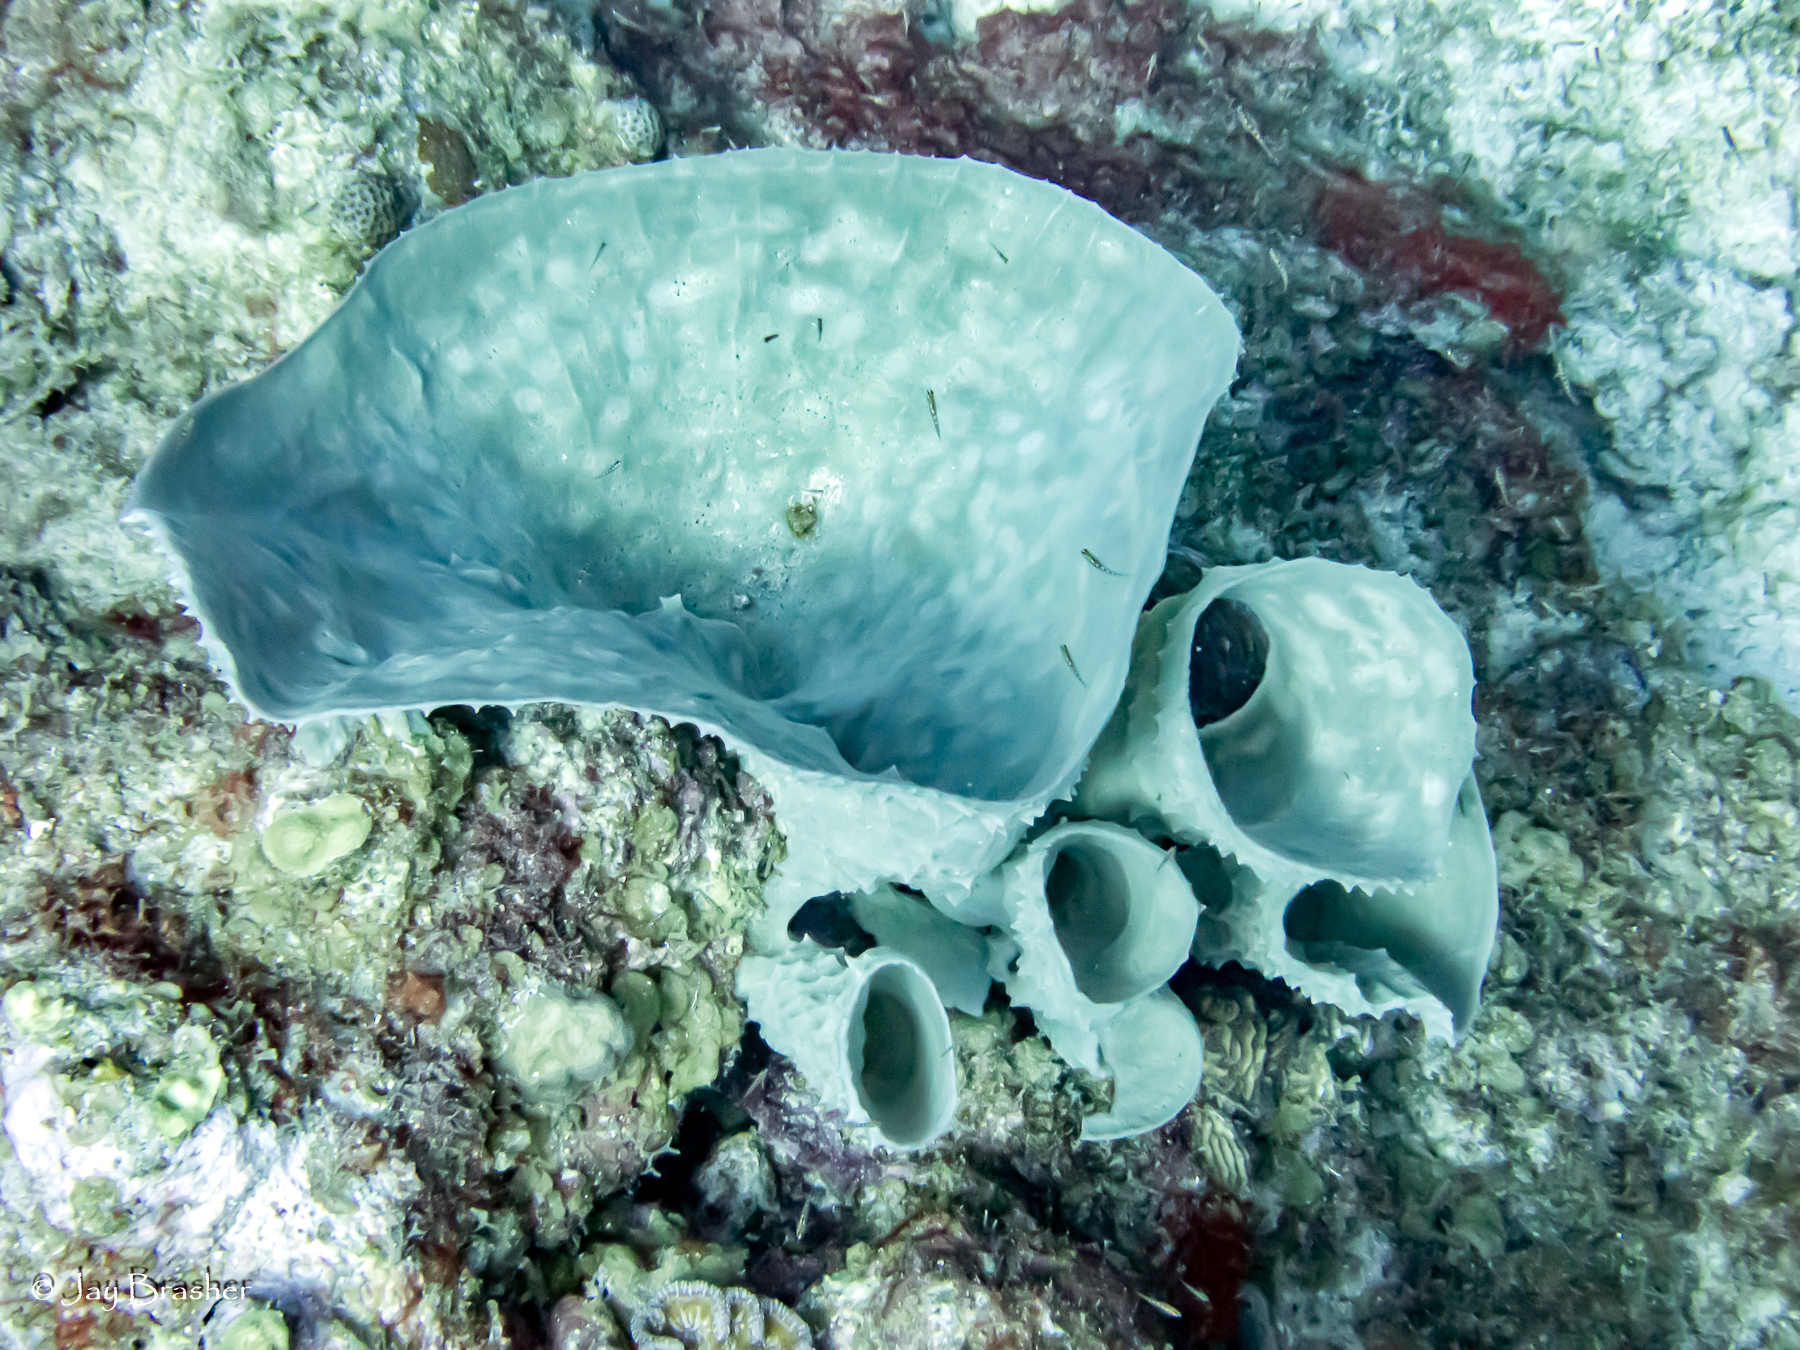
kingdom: Animalia
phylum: Porifera
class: Demospongiae
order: Haplosclerida
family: Callyspongiidae
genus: Callyspongia
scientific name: Callyspongia aculeata
